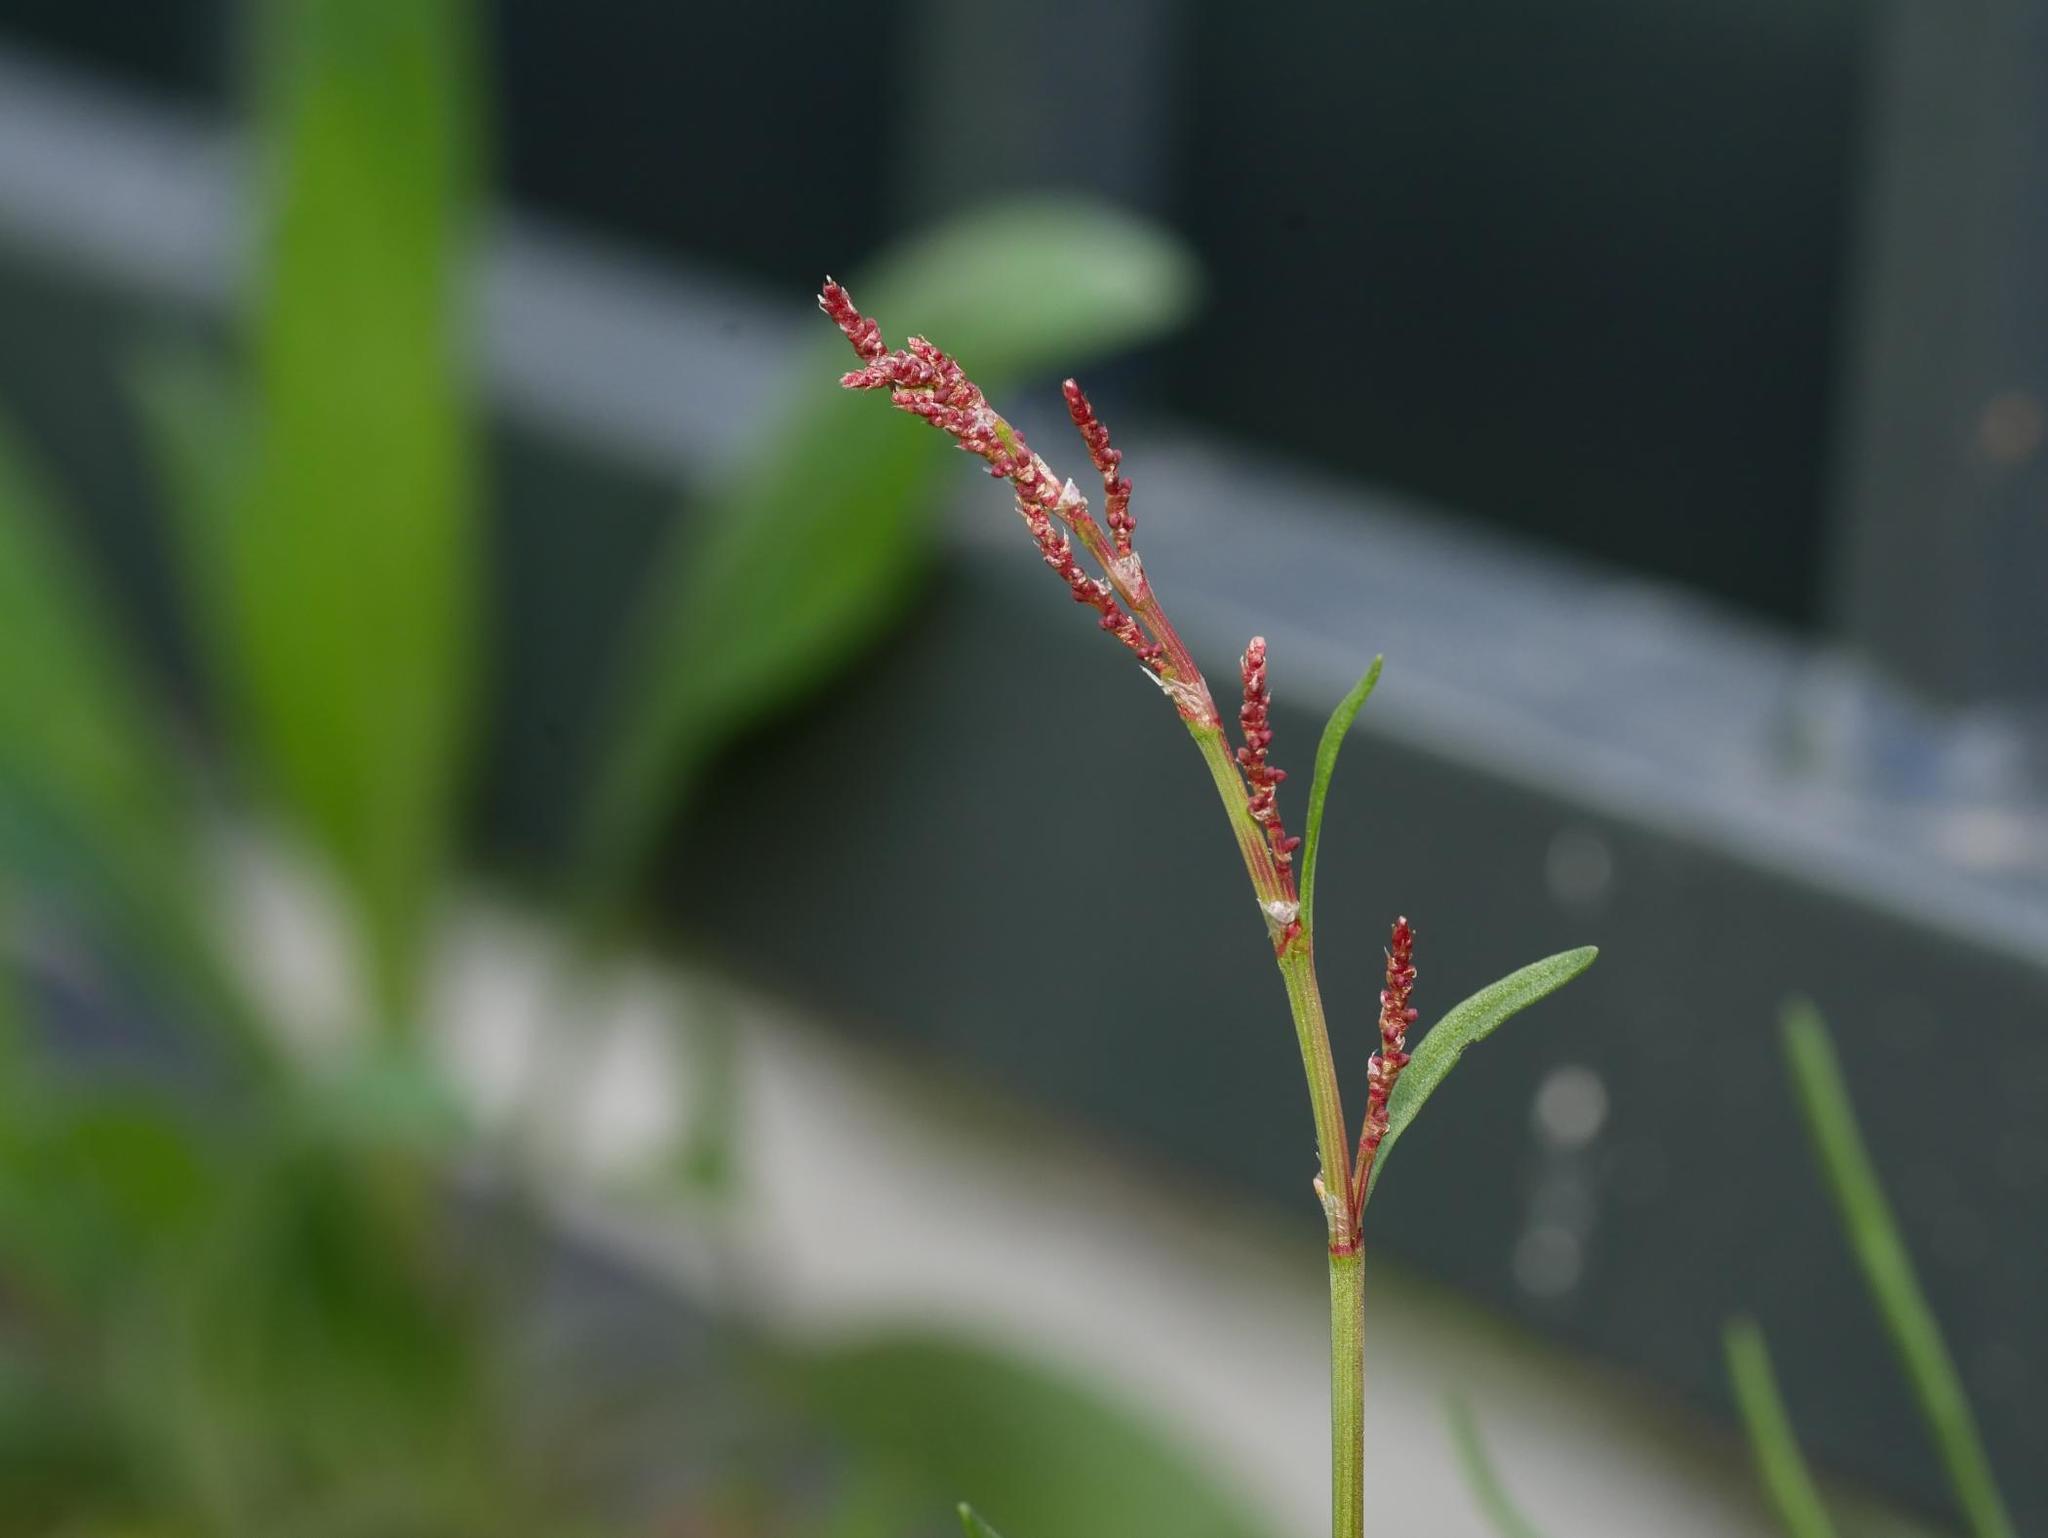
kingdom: Plantae
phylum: Tracheophyta
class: Magnoliopsida
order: Caryophyllales
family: Polygonaceae
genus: Rumex
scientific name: Rumex acetosella
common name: Common sheep sorrel
